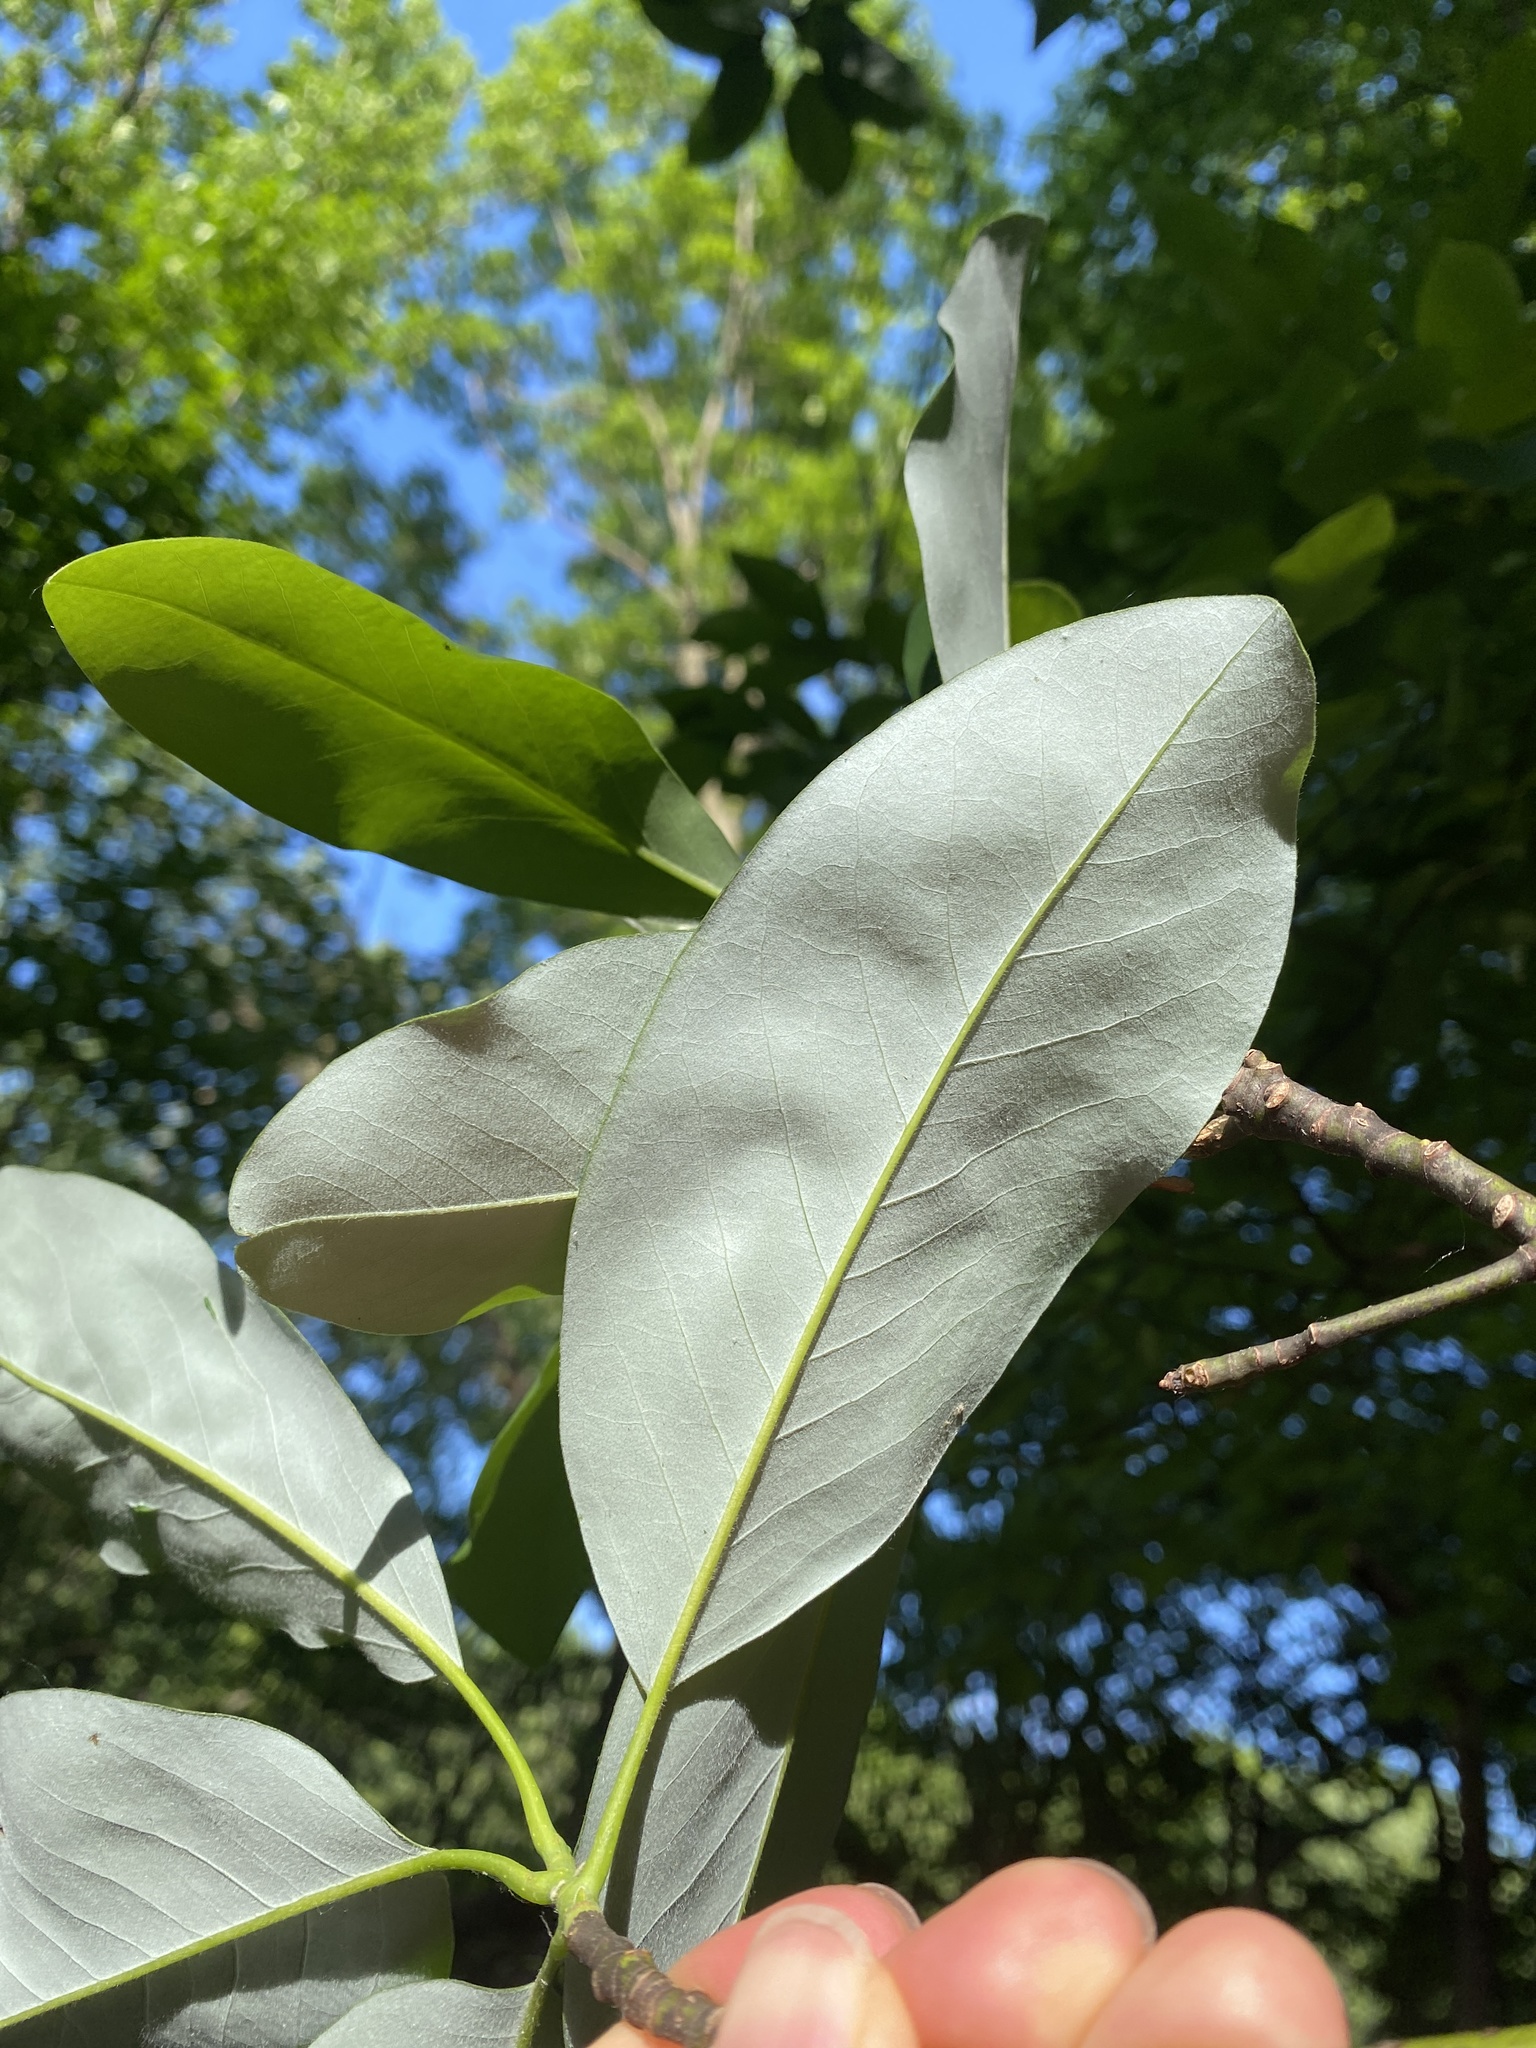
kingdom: Plantae
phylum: Tracheophyta
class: Magnoliopsida
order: Magnoliales
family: Magnoliaceae
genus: Magnolia
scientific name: Magnolia virginiana
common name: Swamp bay
